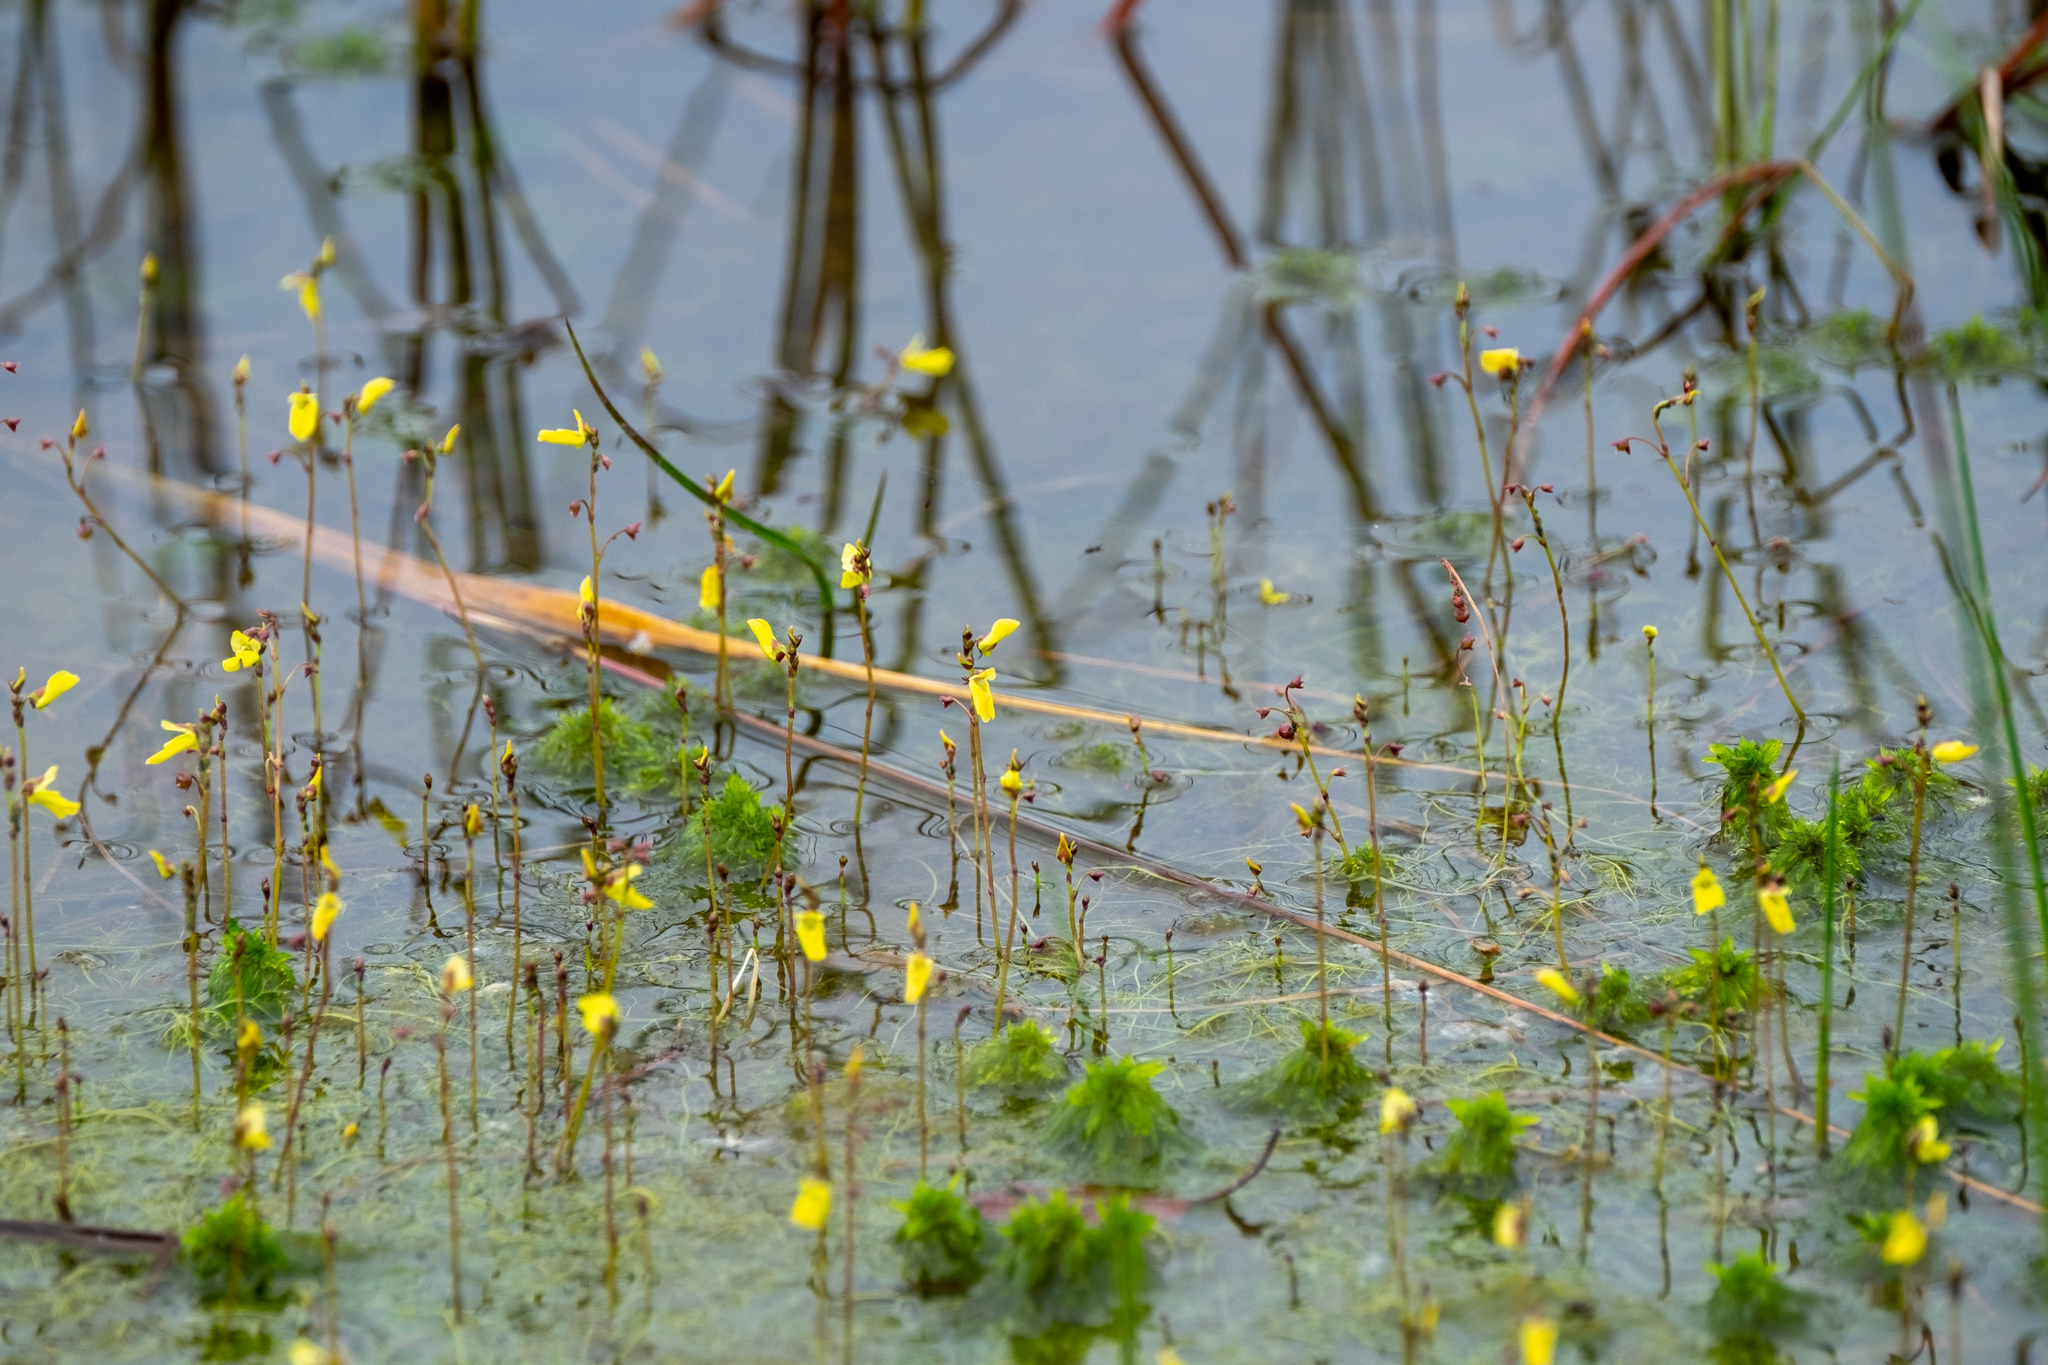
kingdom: Plantae
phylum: Tracheophyta
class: Magnoliopsida
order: Lamiales
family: Lentibulariaceae
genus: Utricularia
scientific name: Utricularia minor
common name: Lesser bladderwort
